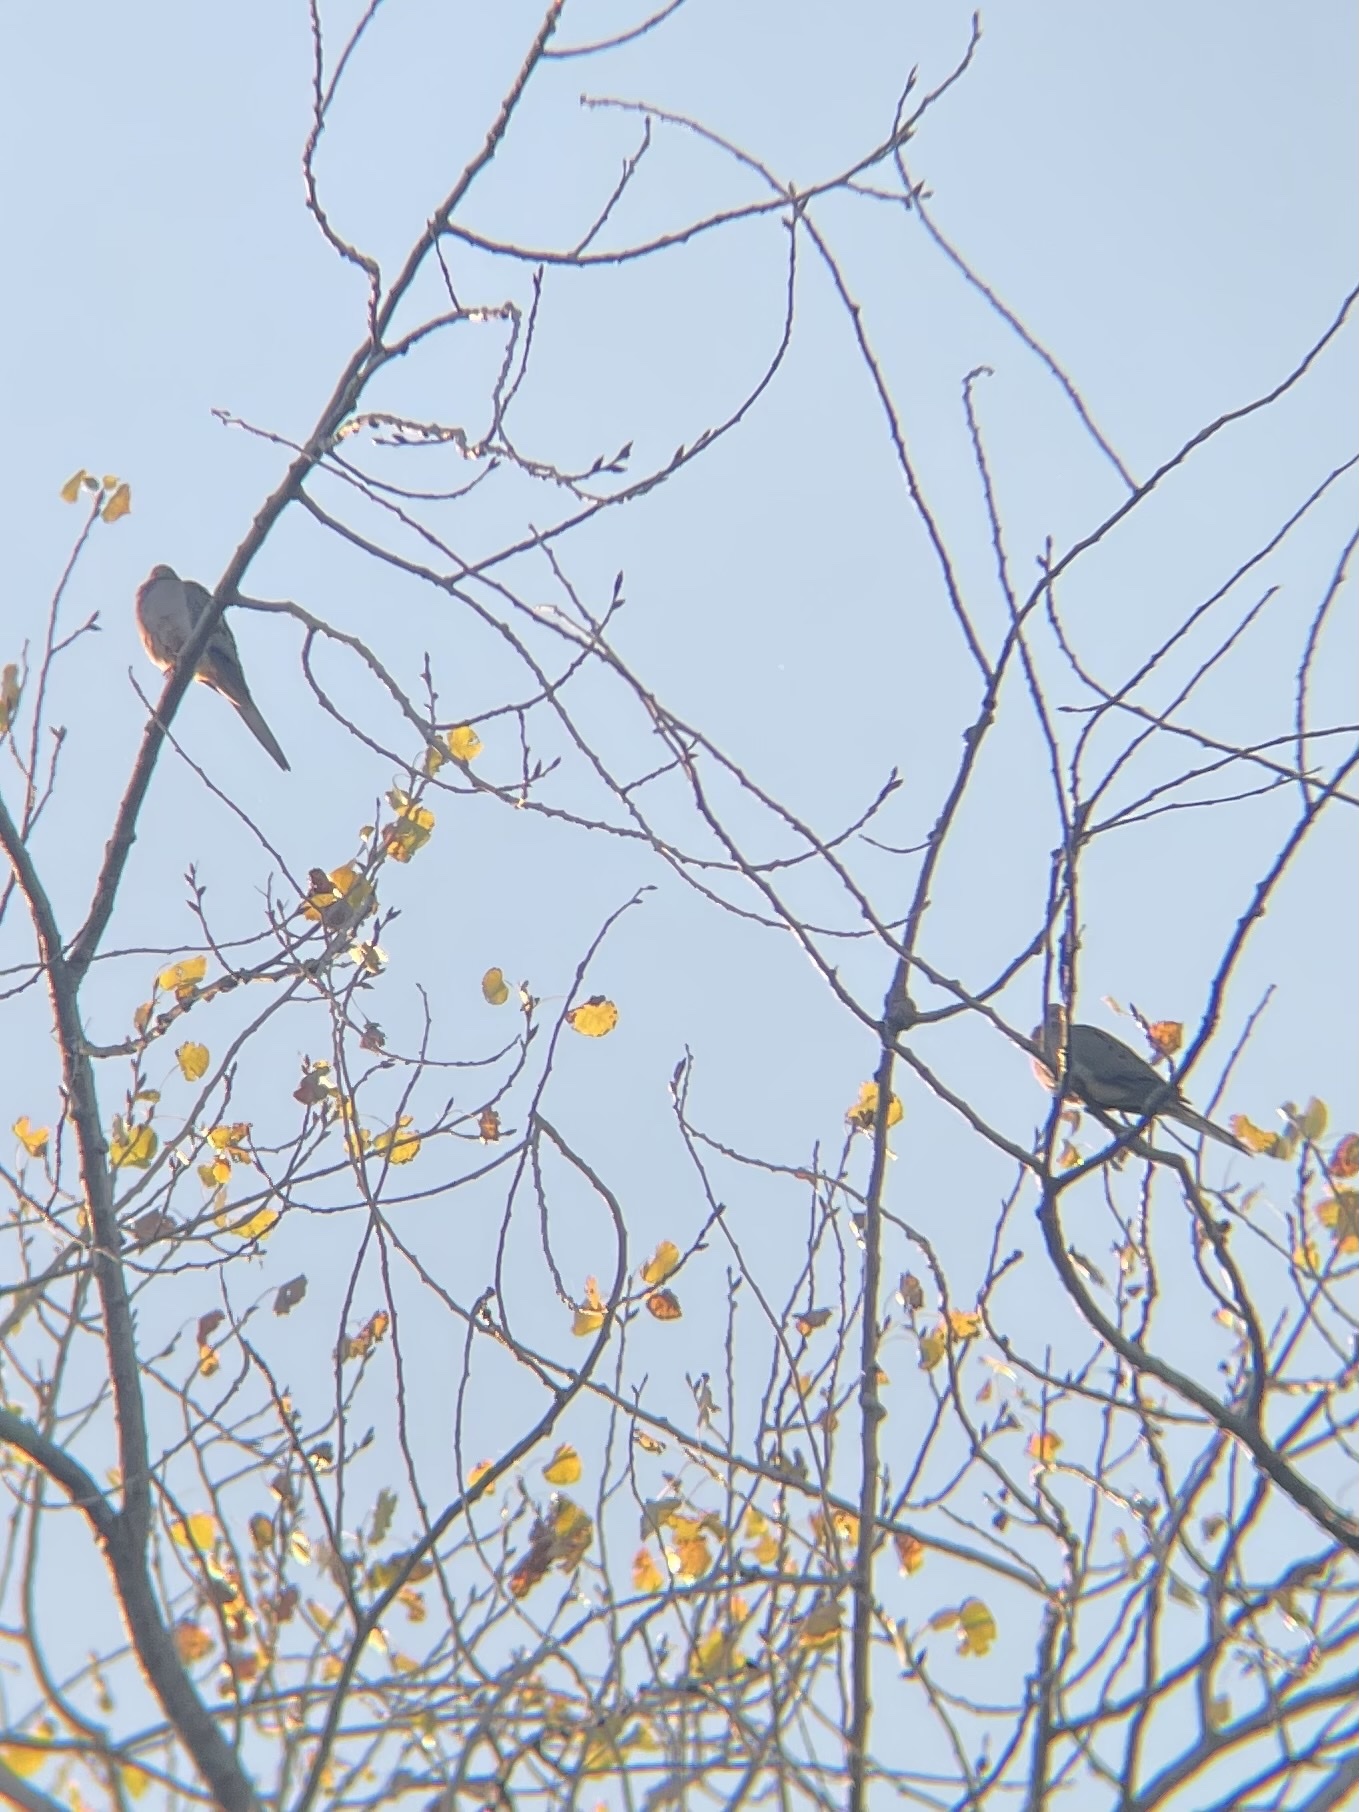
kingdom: Animalia
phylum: Chordata
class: Aves
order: Columbiformes
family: Columbidae
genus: Zenaida
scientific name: Zenaida macroura
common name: Mourning dove
